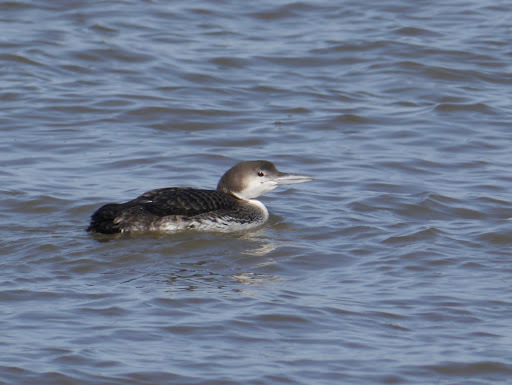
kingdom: Animalia
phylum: Chordata
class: Aves
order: Gaviiformes
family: Gaviidae
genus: Gavia
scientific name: Gavia immer
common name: Common loon
